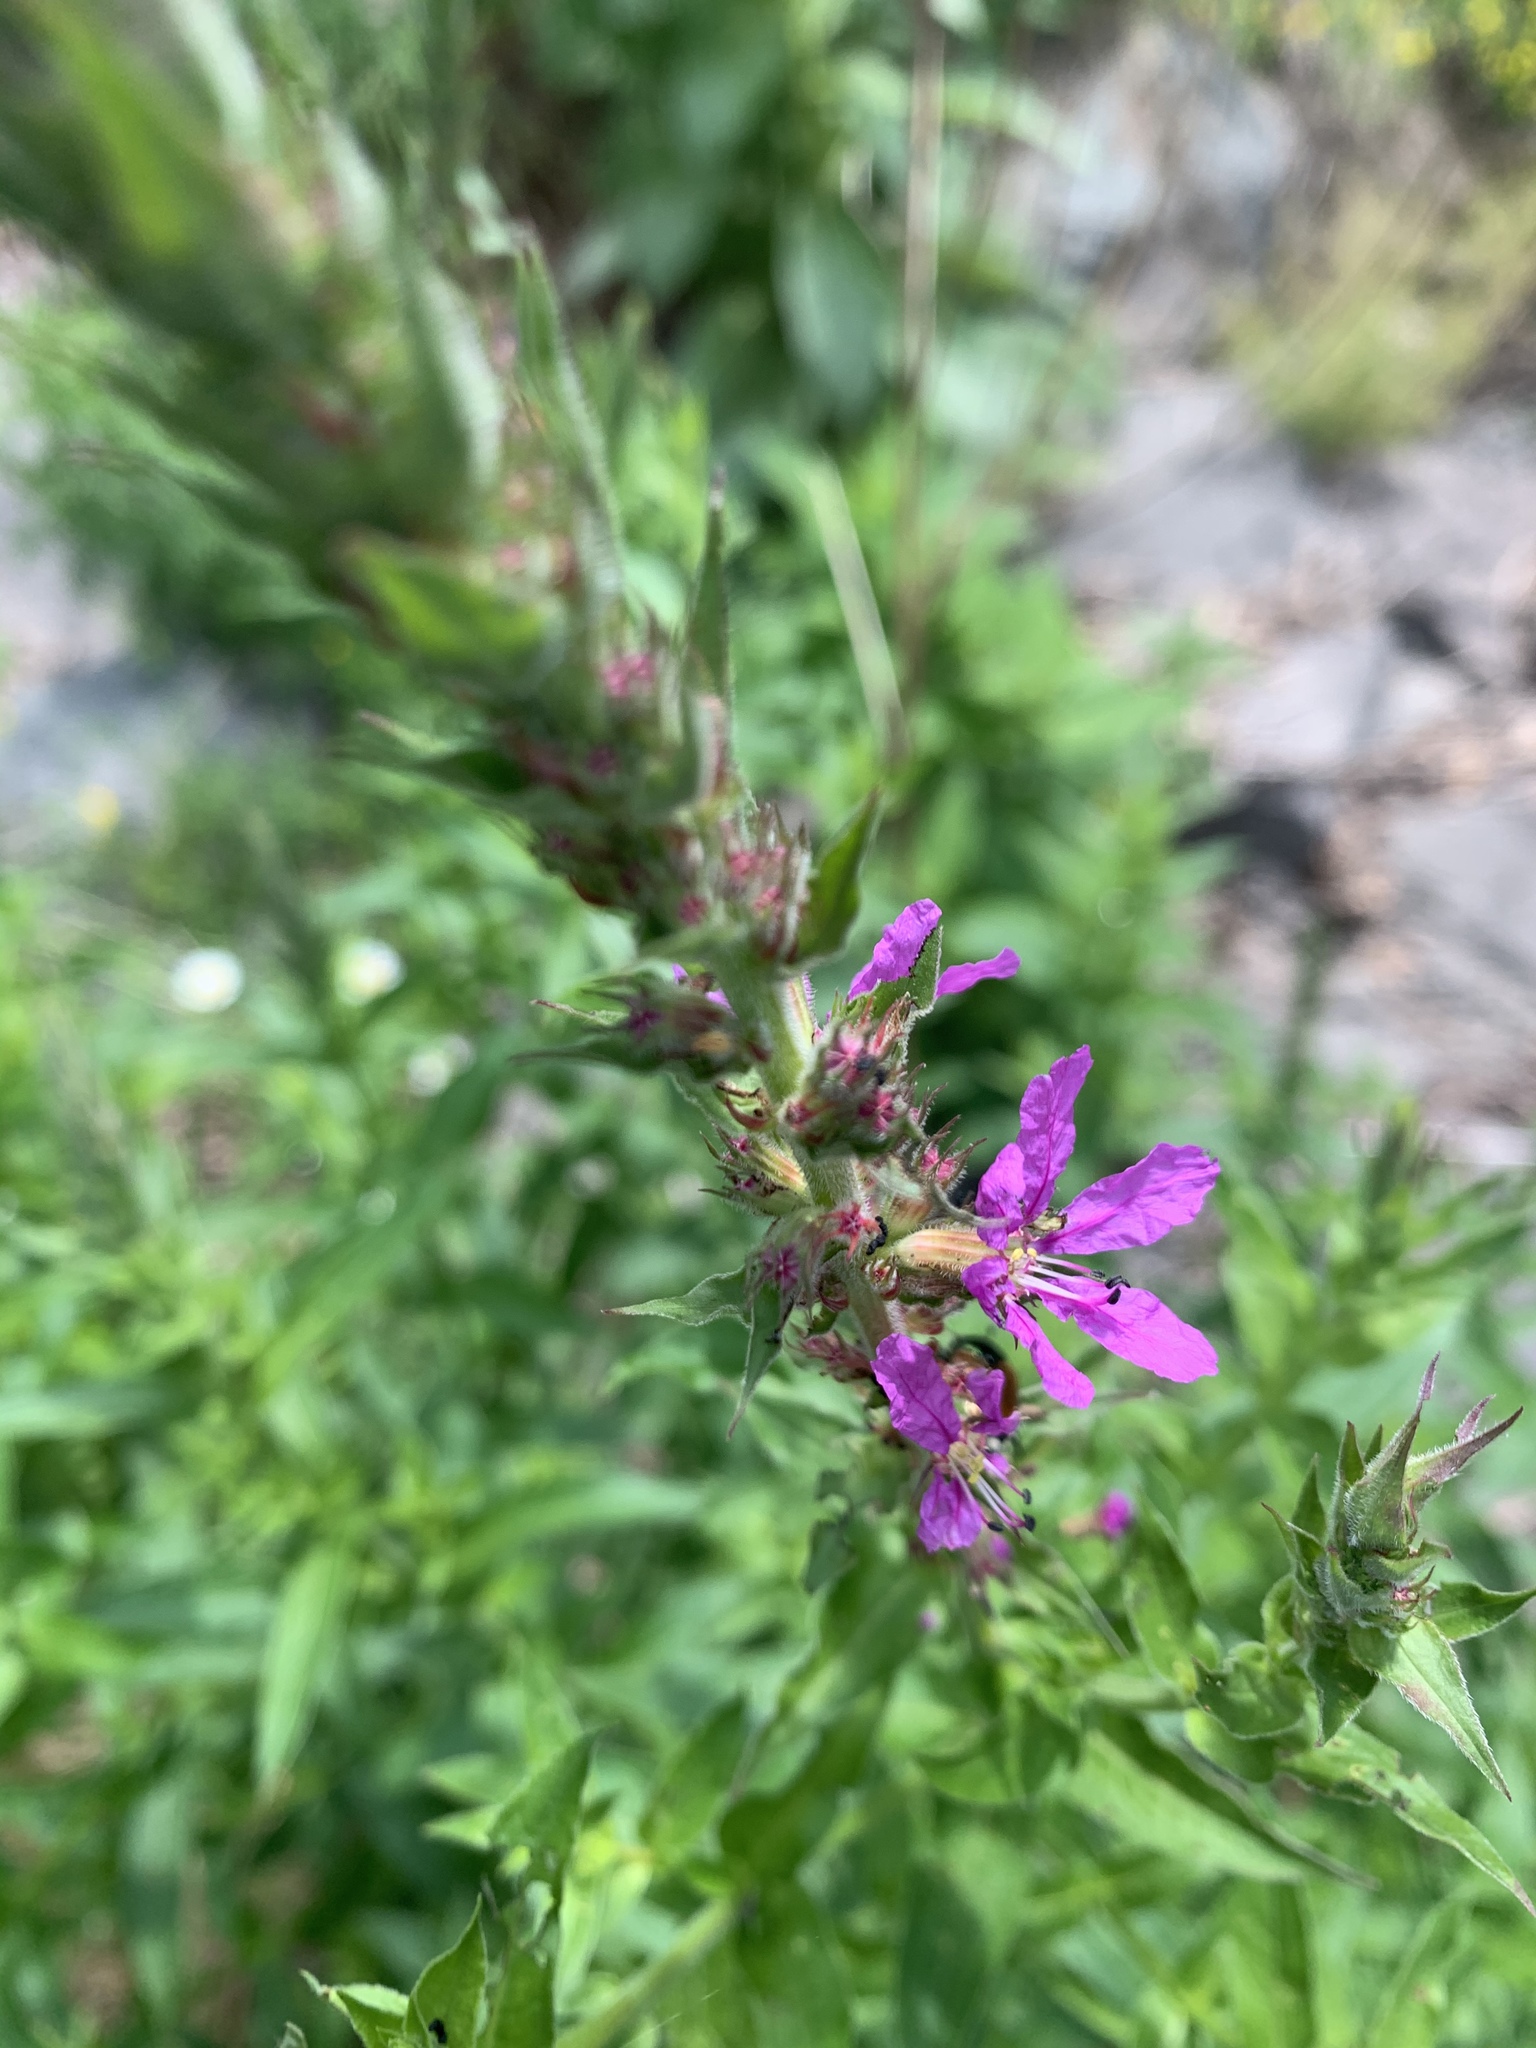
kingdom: Plantae
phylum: Tracheophyta
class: Magnoliopsida
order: Myrtales
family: Lythraceae
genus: Lythrum
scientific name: Lythrum salicaria
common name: Purple loosestrife
